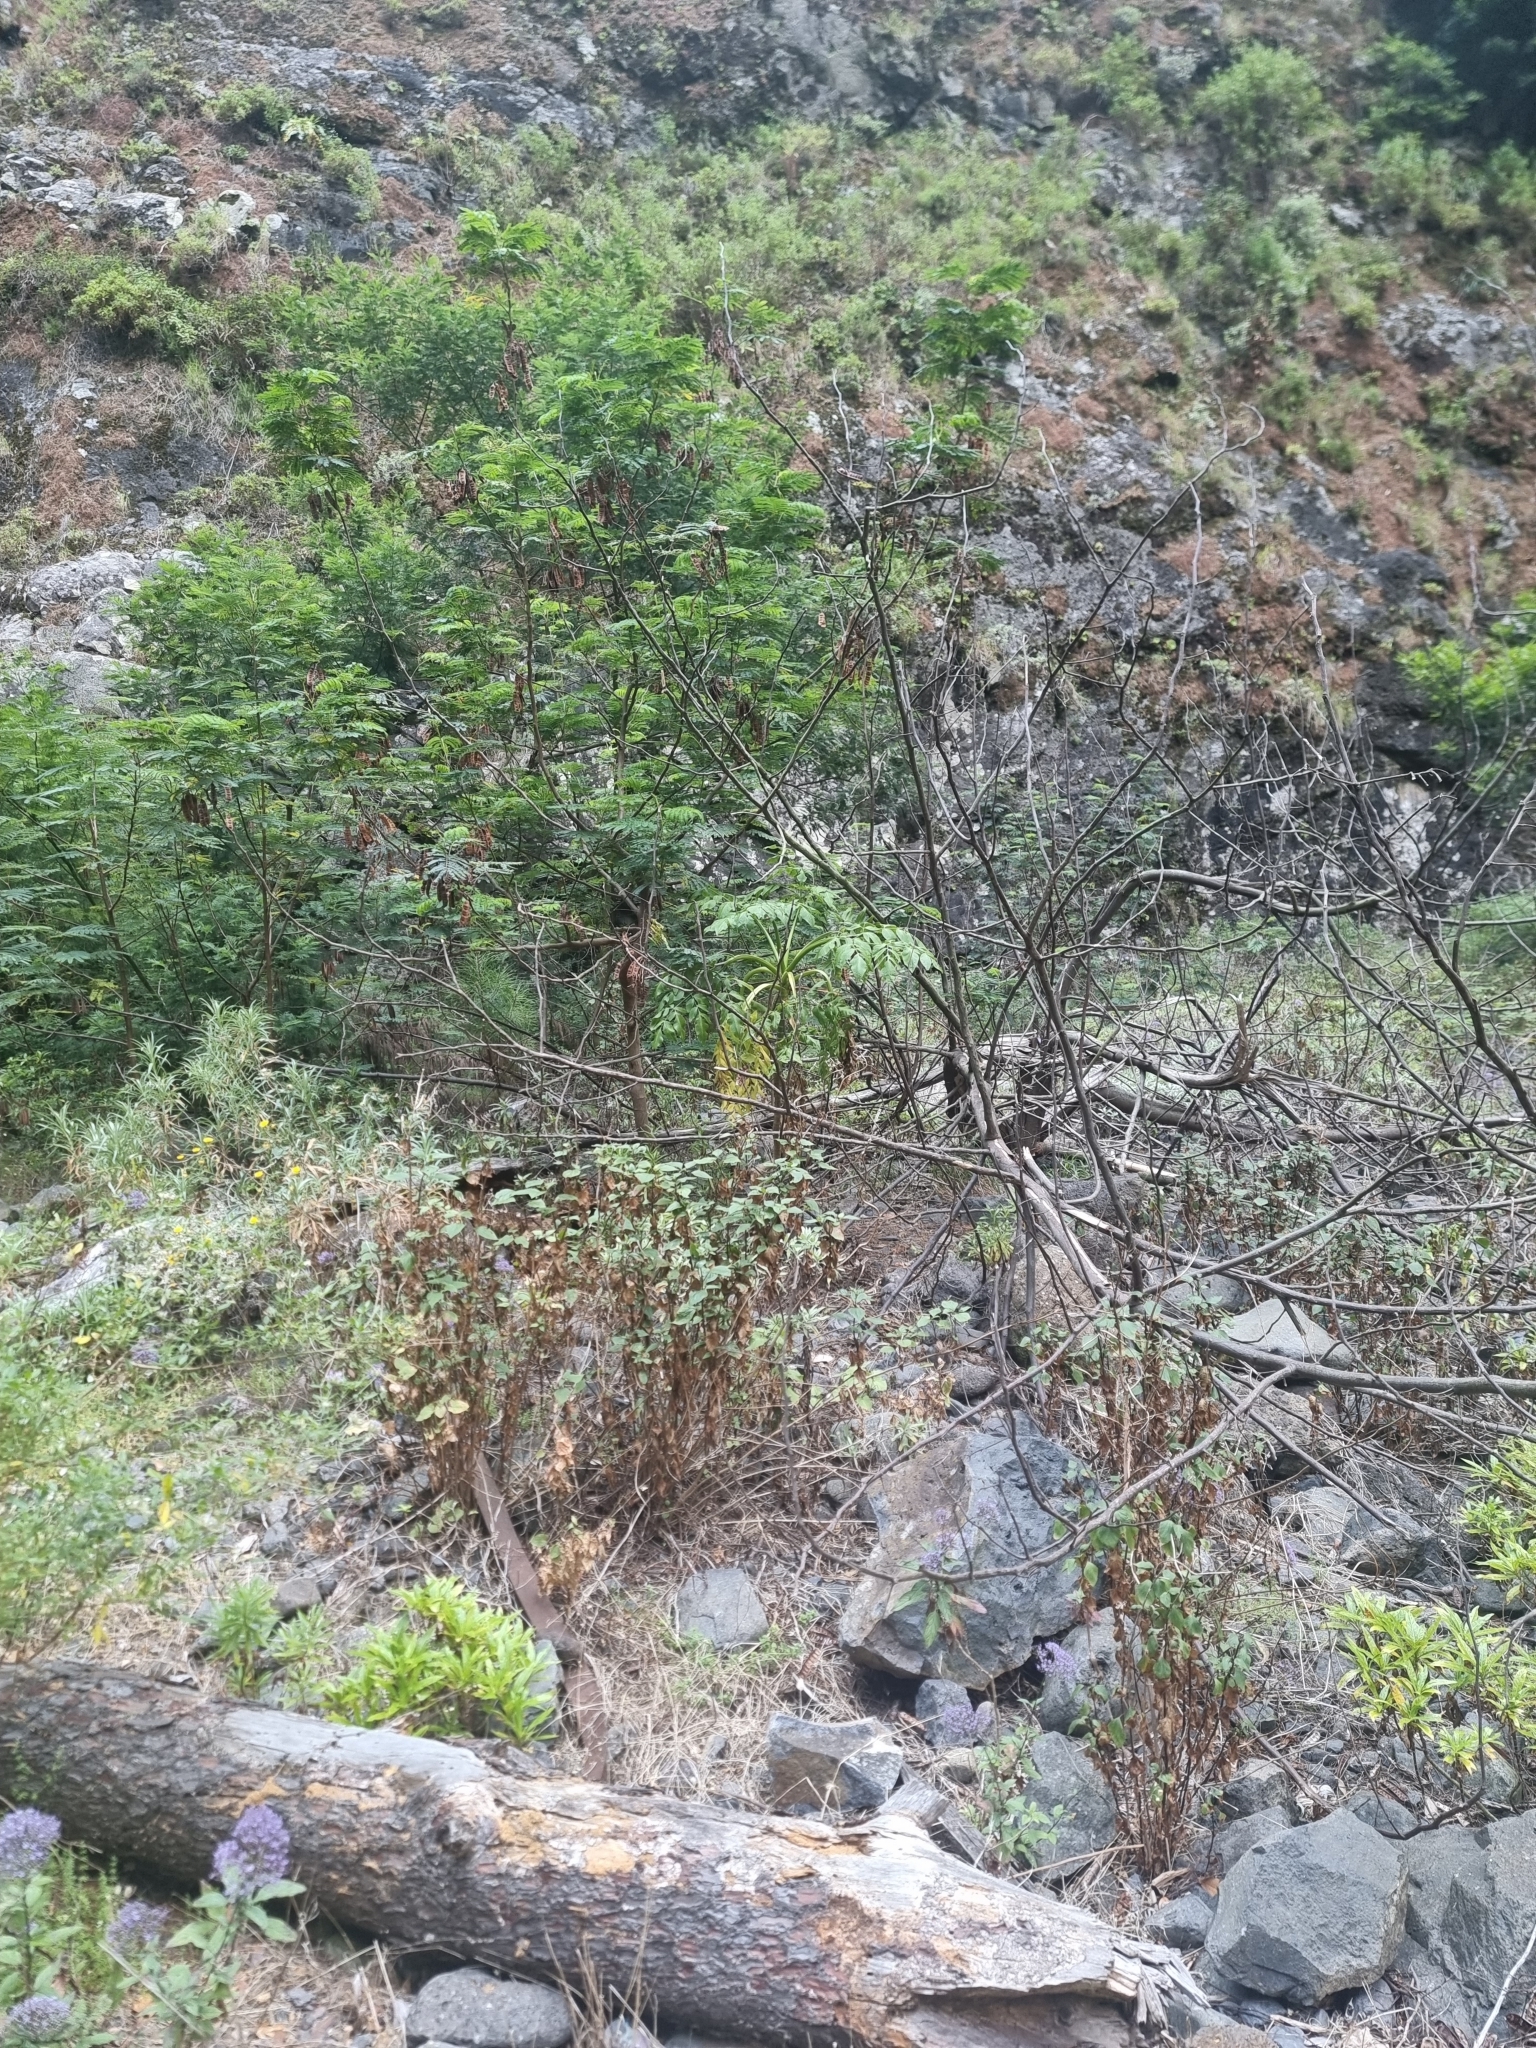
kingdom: Plantae
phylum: Tracheophyta
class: Magnoliopsida
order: Apiales
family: Apiaceae
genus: Daucus
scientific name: Daucus decipiens
